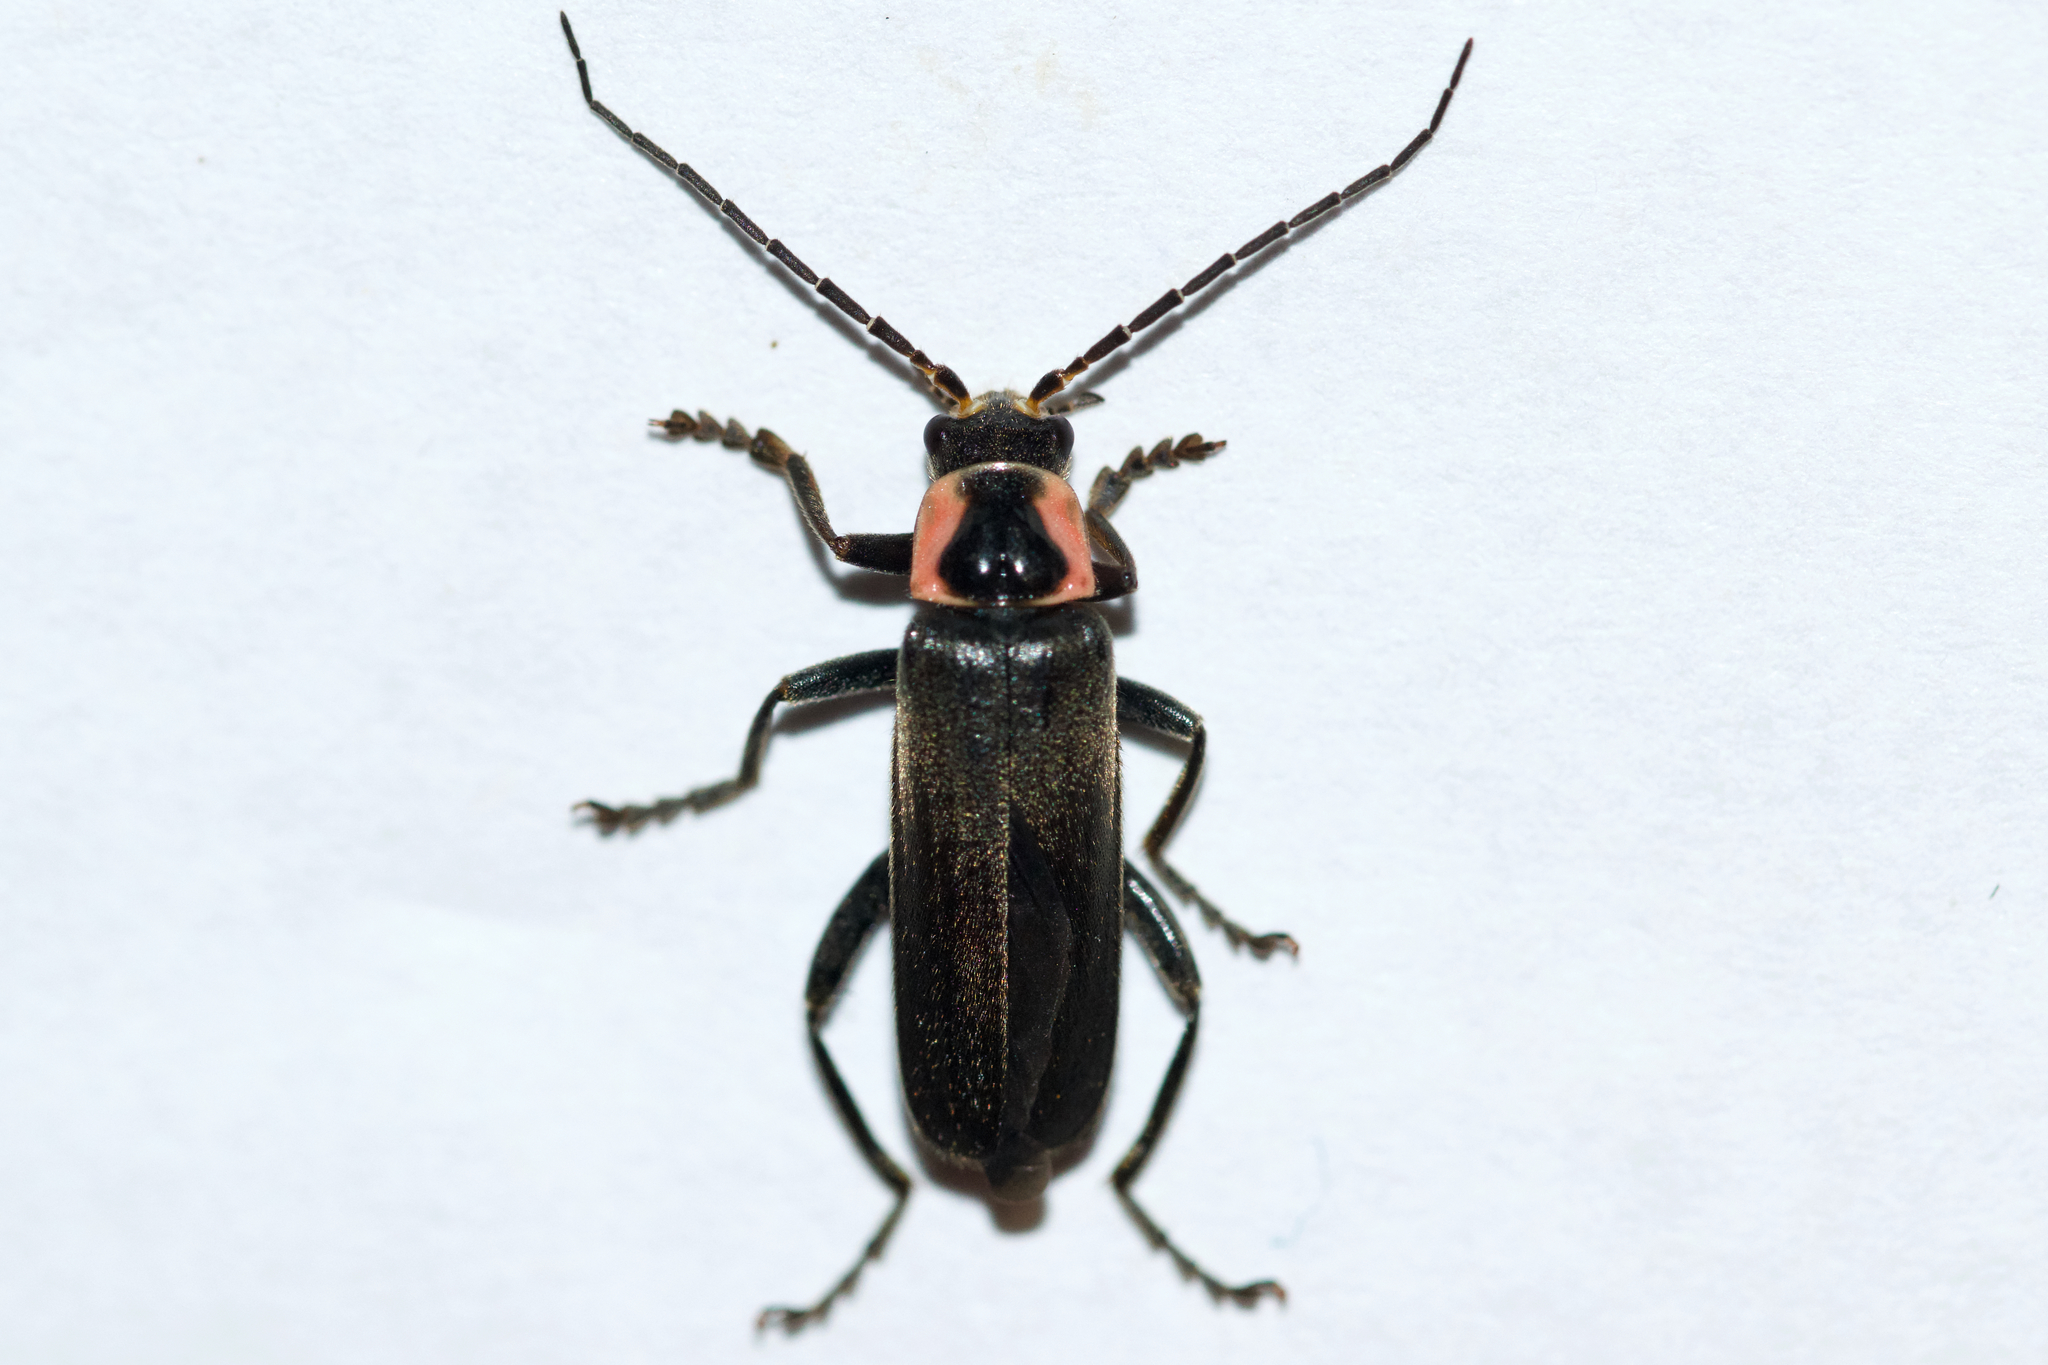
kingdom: Animalia
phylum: Arthropoda
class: Insecta
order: Coleoptera
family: Cantharidae
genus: Rhaxonycha
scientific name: Rhaxonycha carolina
